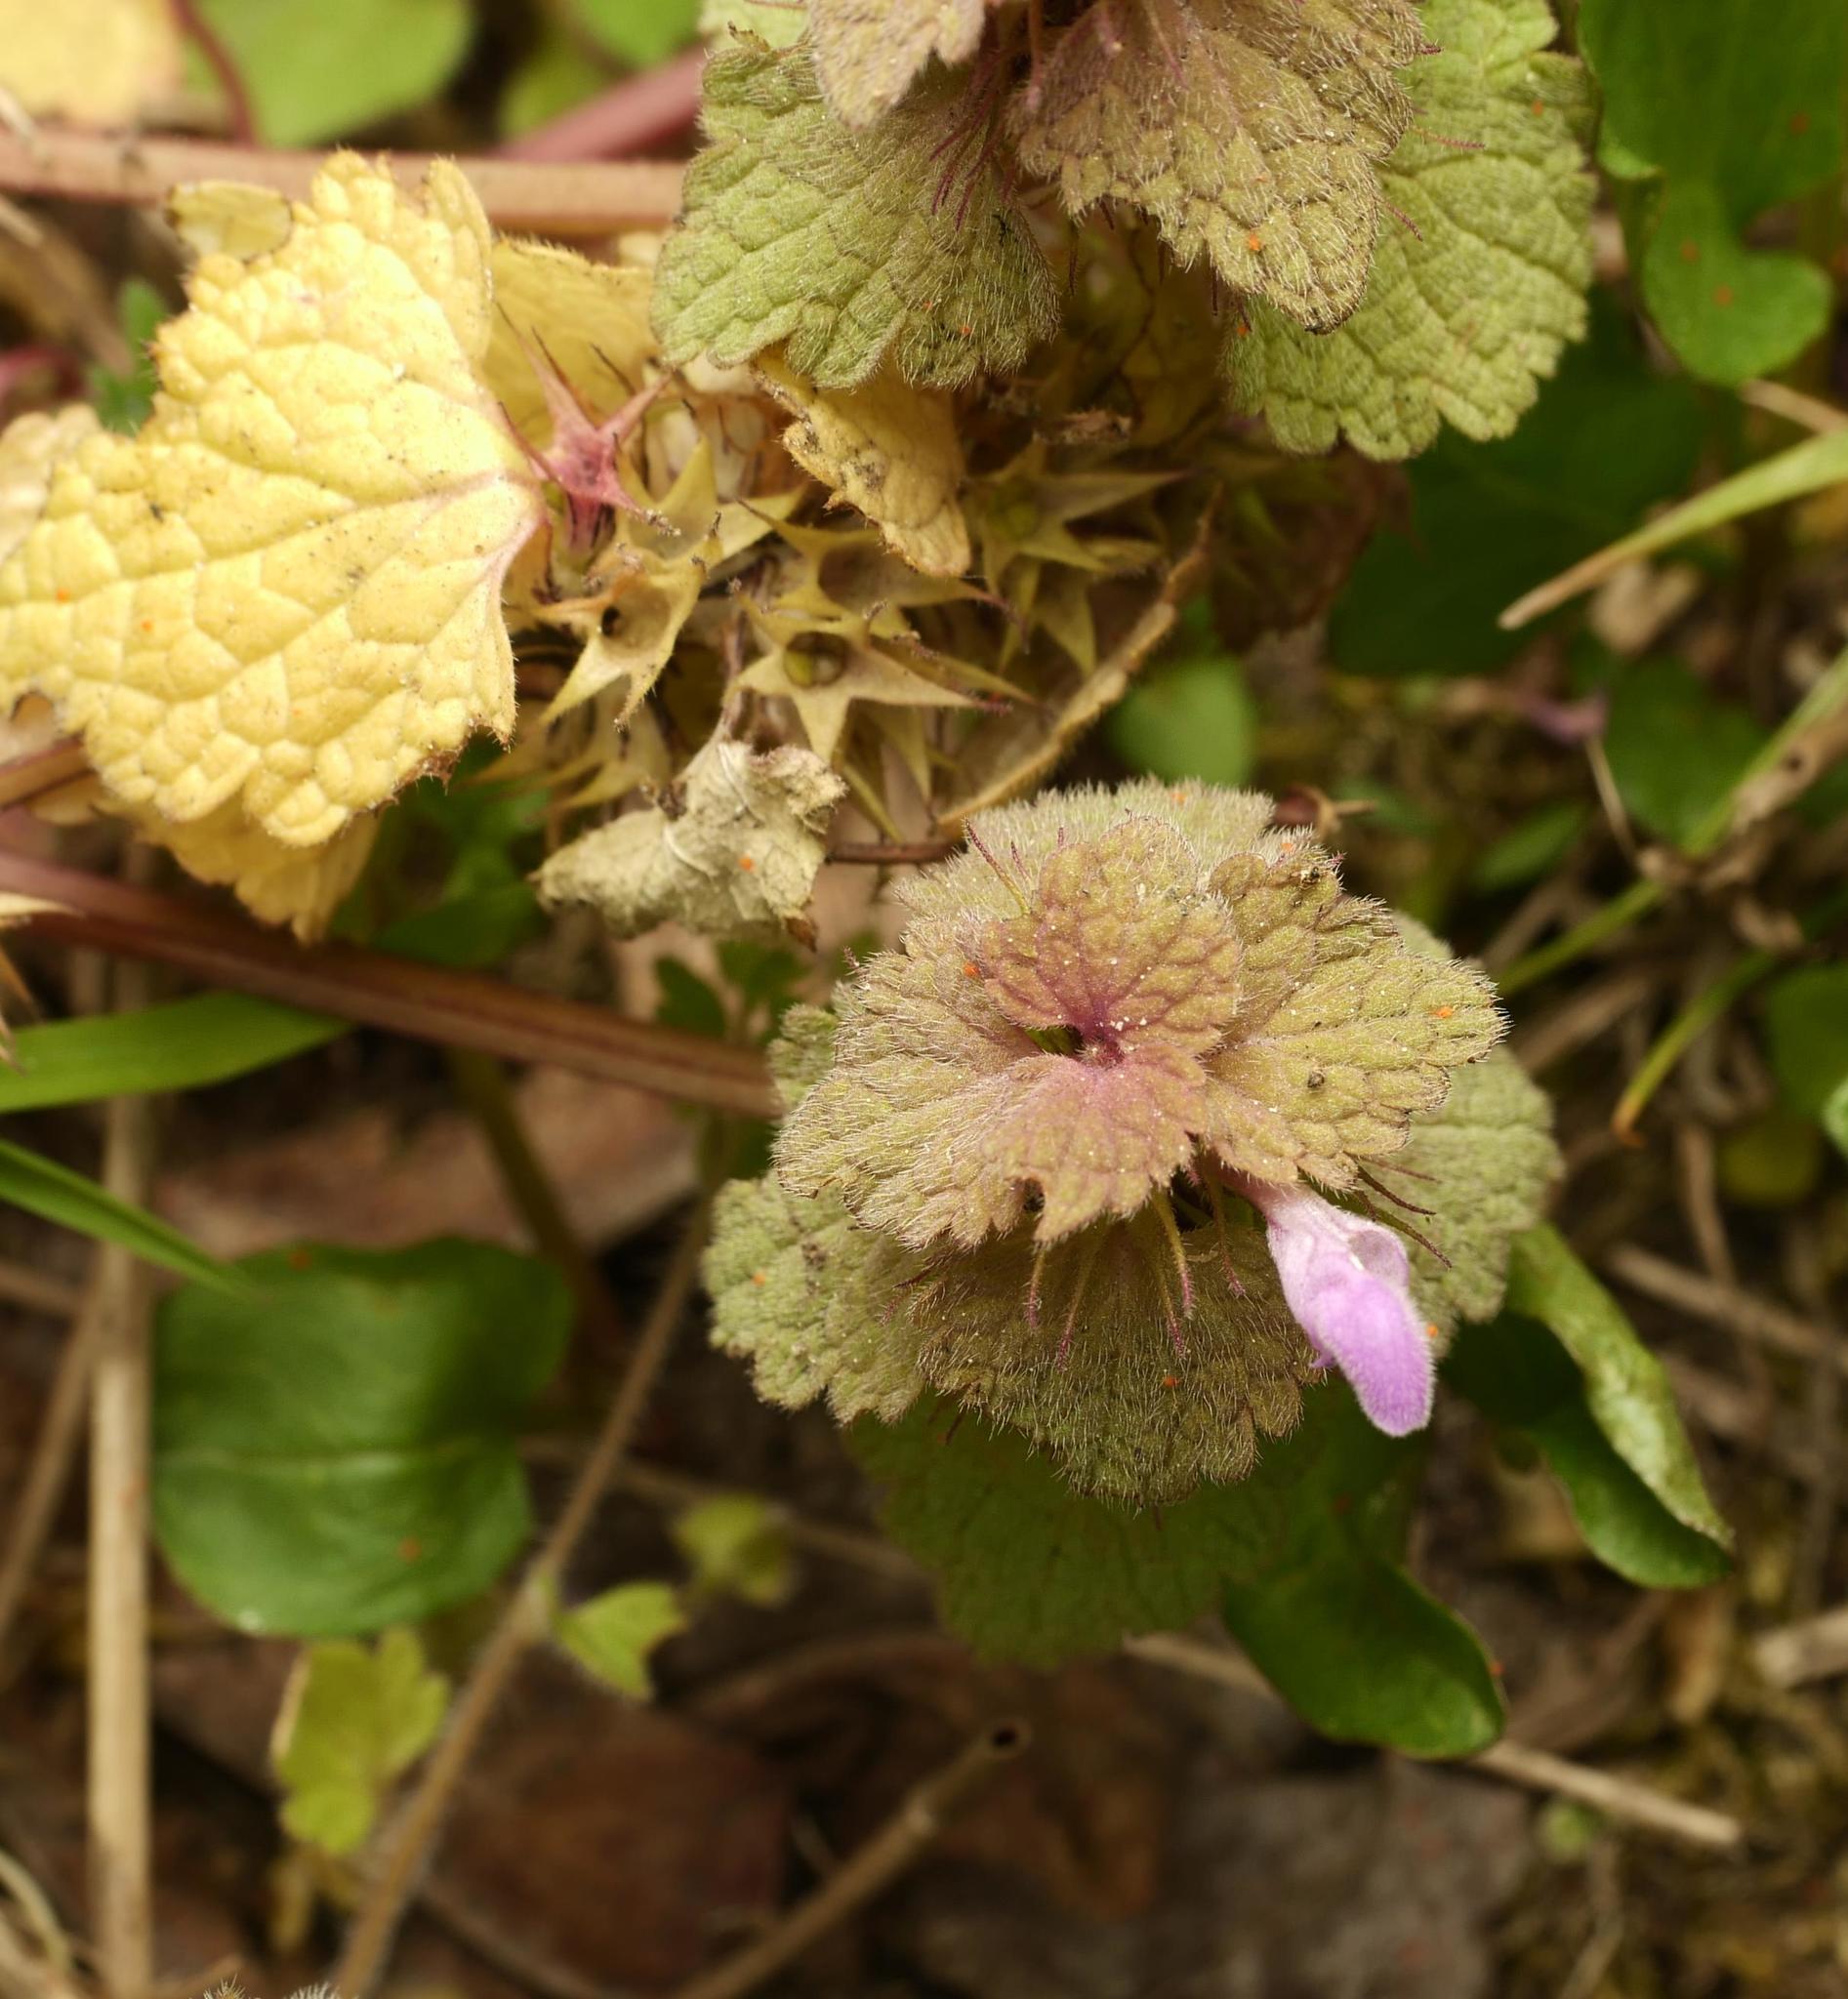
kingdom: Plantae
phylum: Tracheophyta
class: Magnoliopsida
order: Lamiales
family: Lamiaceae
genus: Lamium
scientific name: Lamium purpureum
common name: Red dead-nettle
